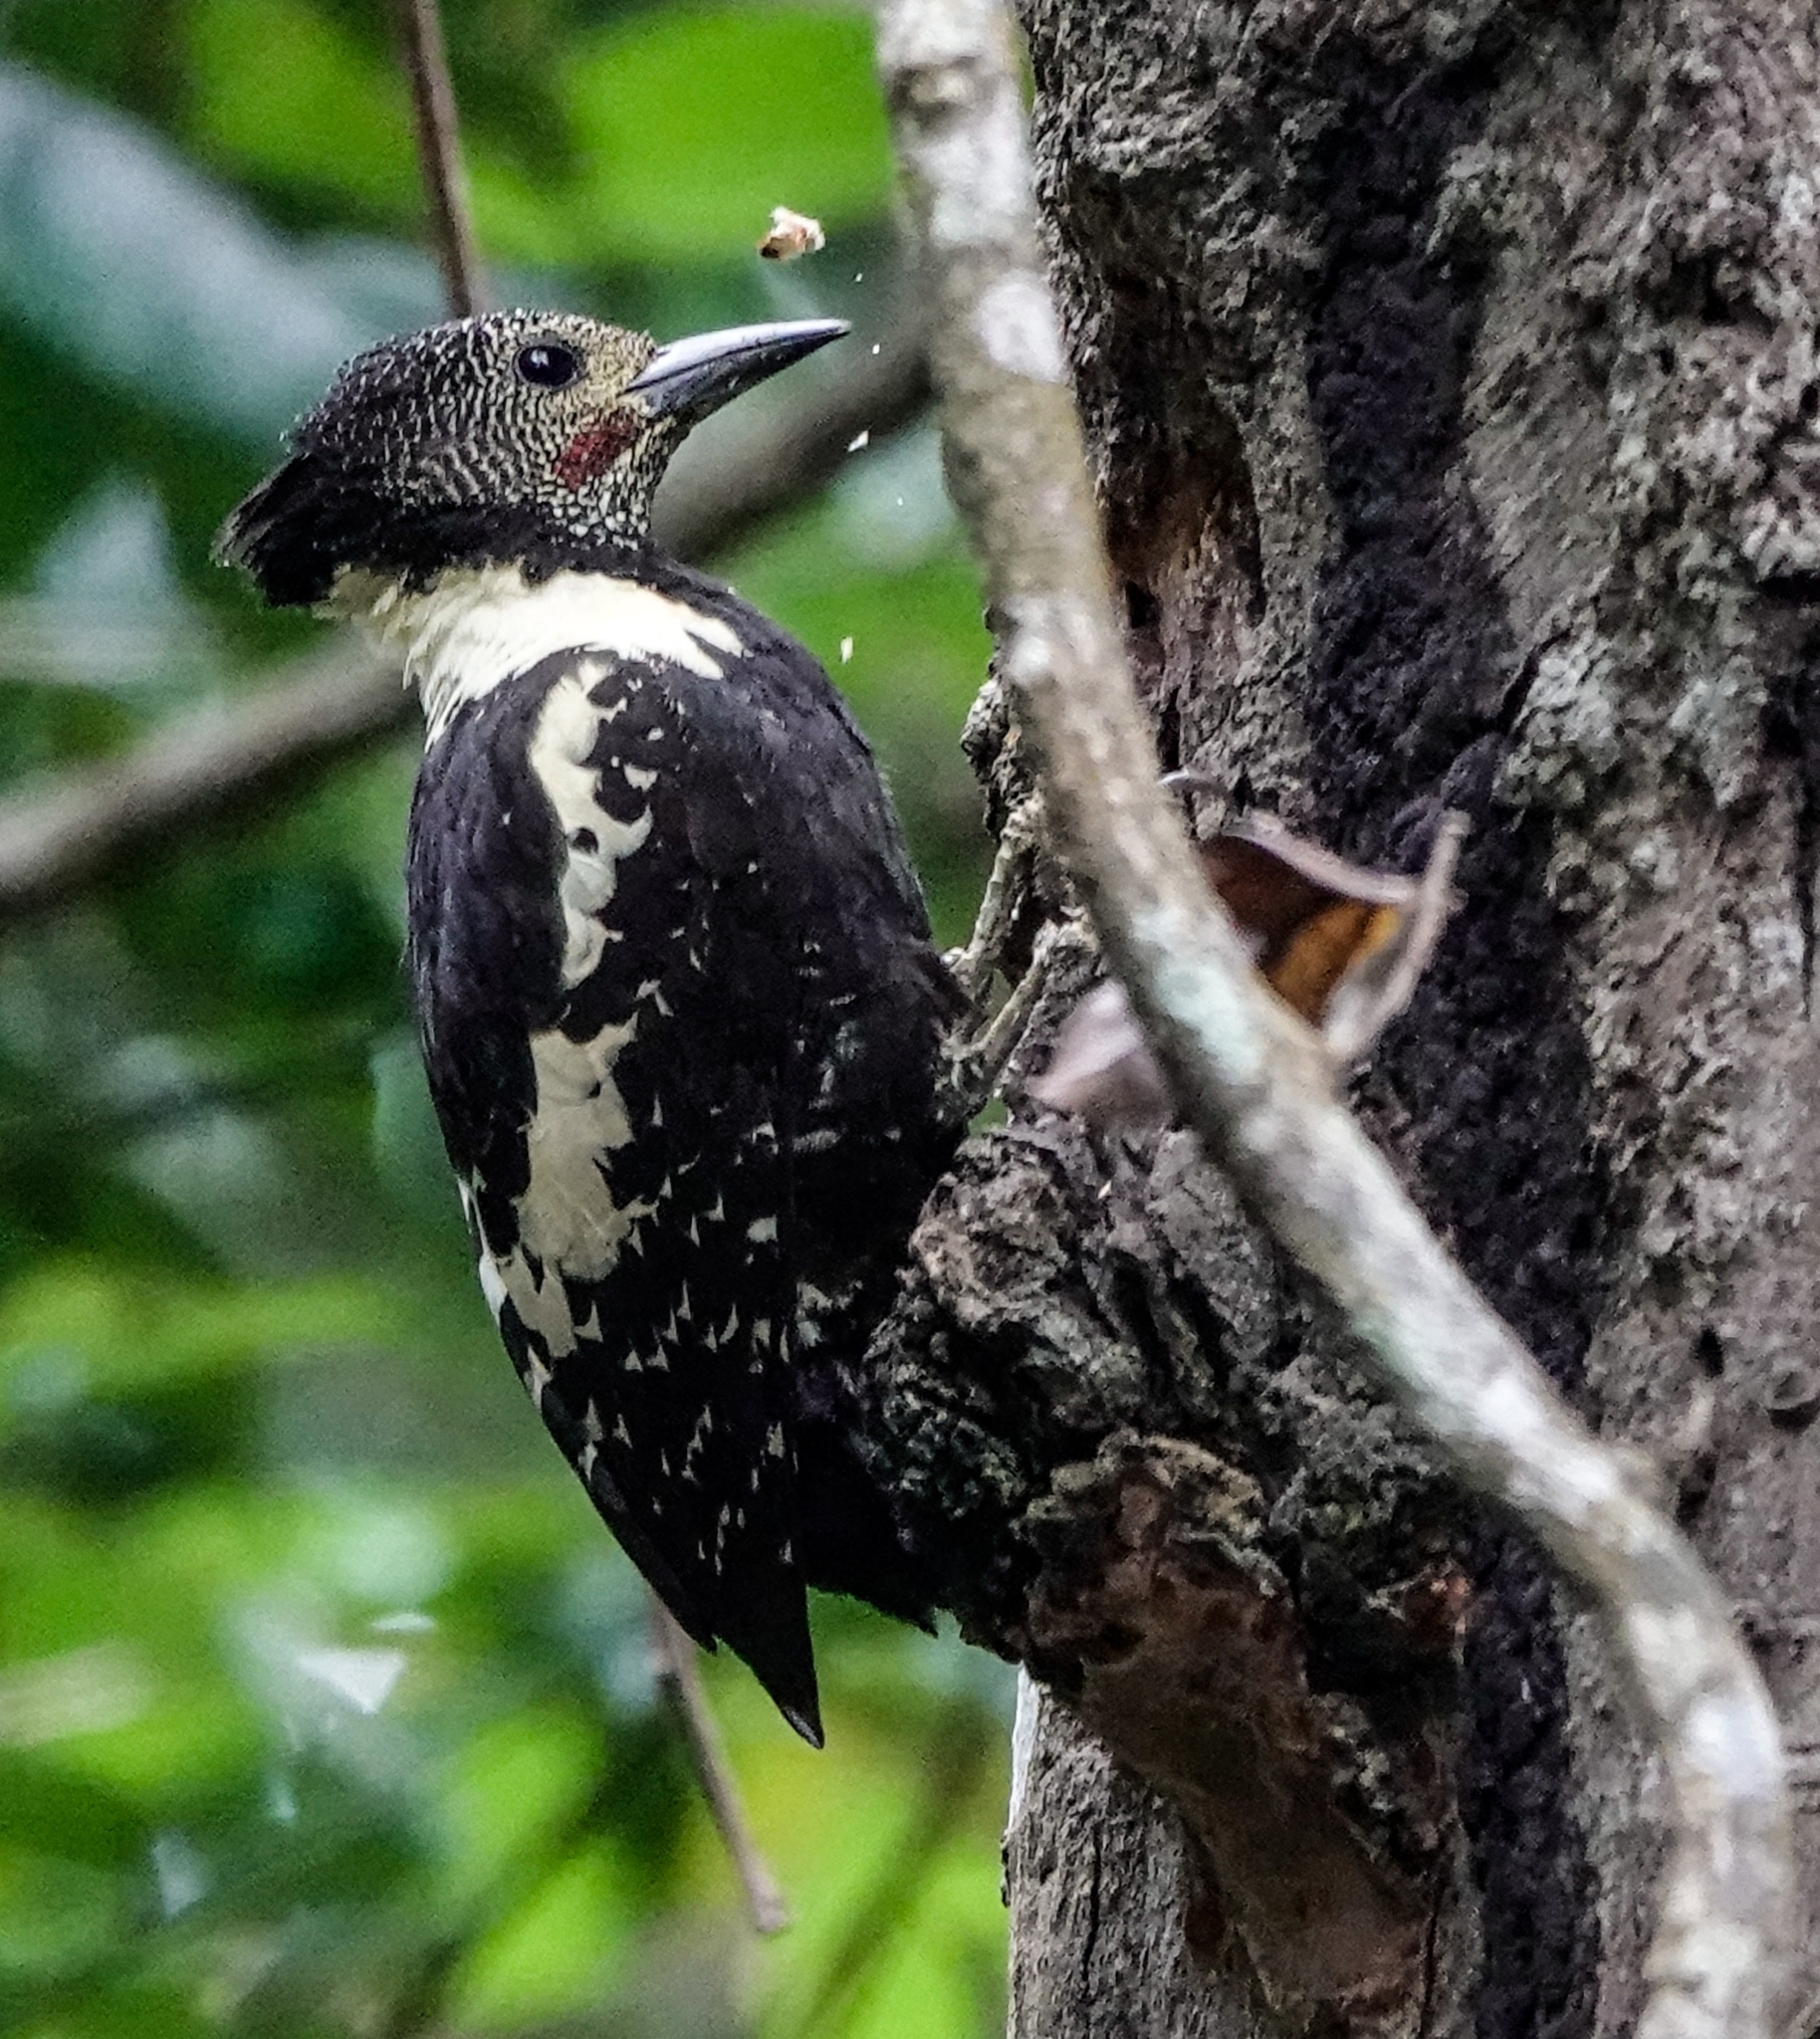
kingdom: Animalia
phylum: Chordata
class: Aves
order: Piciformes
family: Picidae
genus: Meiglyptes
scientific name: Meiglyptes jugularis
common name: Black-and-buff woodpecker
